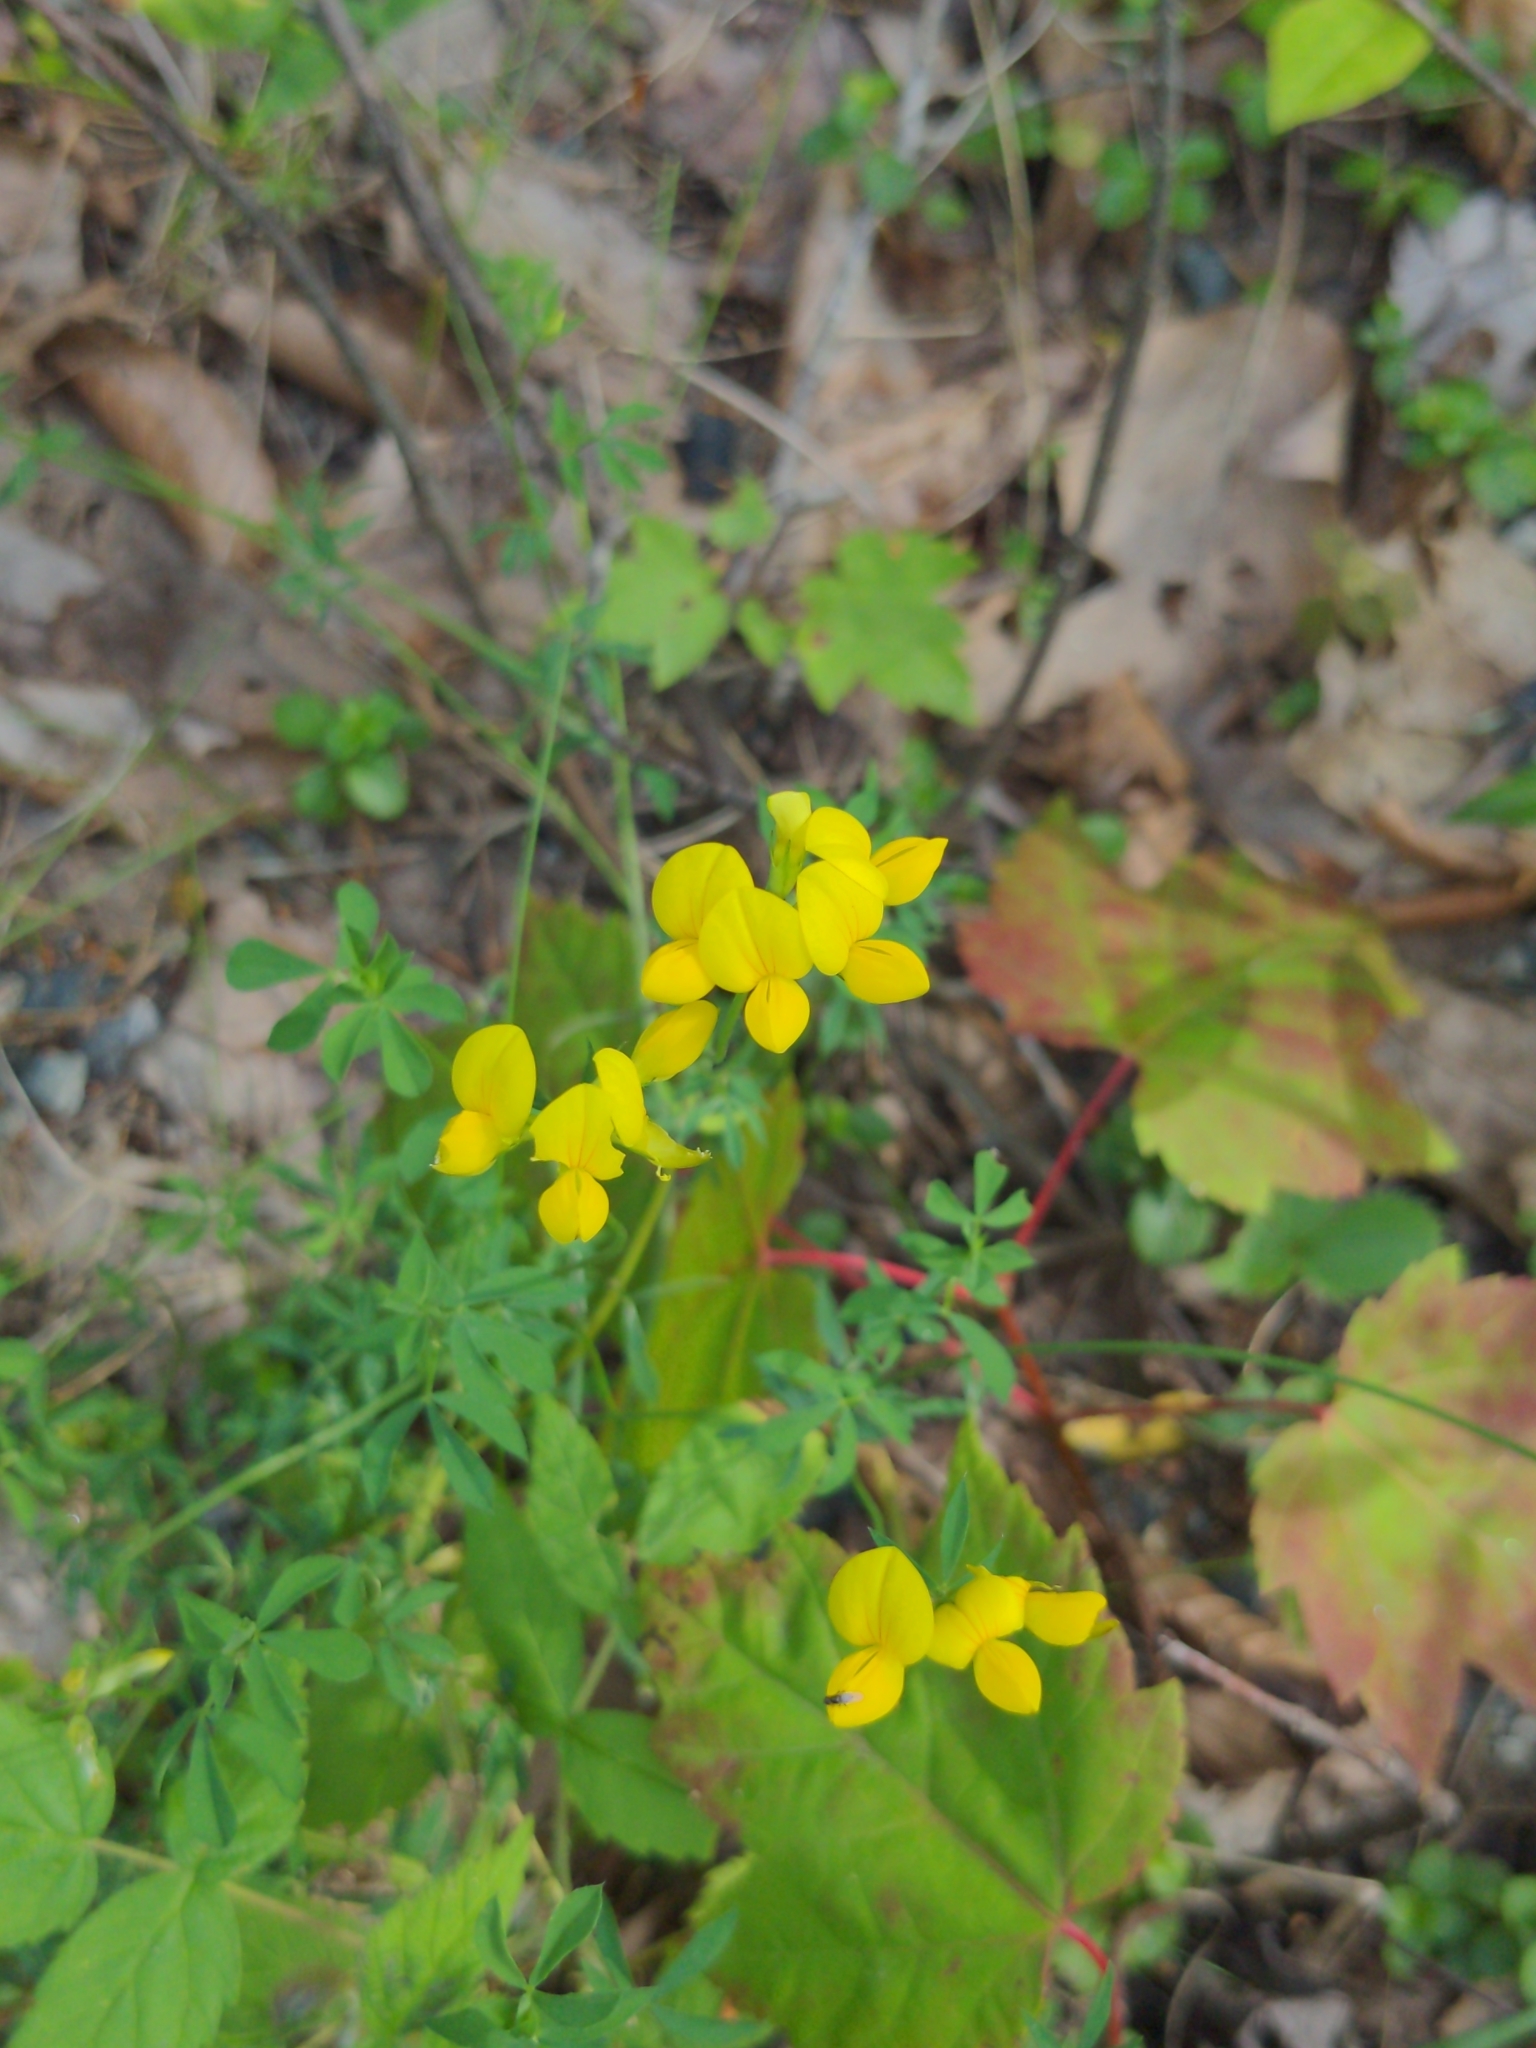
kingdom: Plantae
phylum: Tracheophyta
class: Magnoliopsida
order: Fabales
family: Fabaceae
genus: Lotus
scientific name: Lotus corniculatus
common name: Common bird's-foot-trefoil
